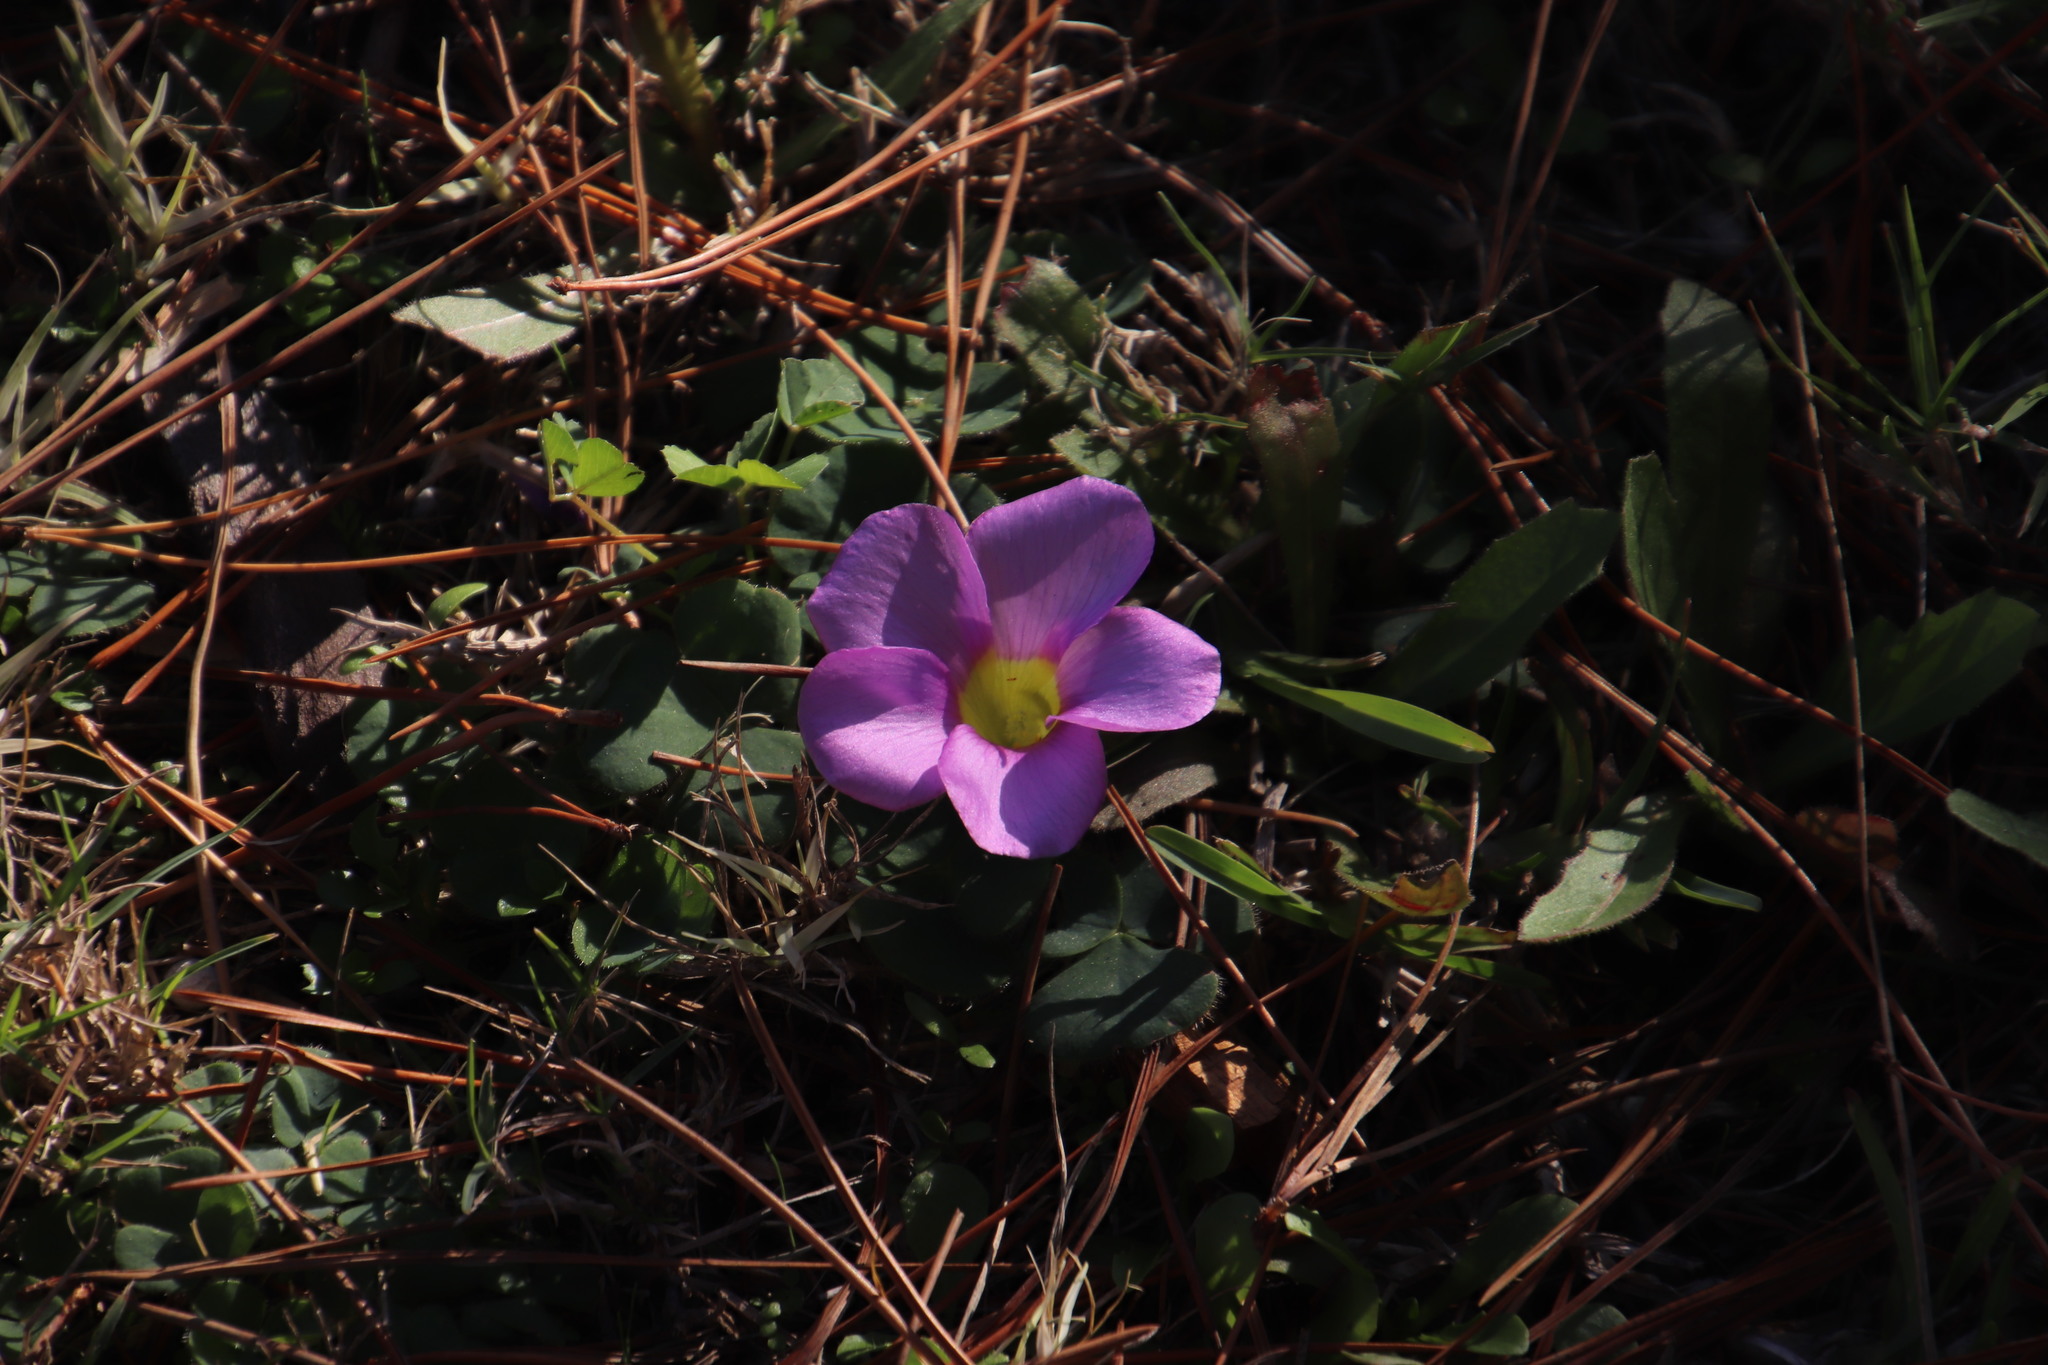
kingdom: Plantae
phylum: Tracheophyta
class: Magnoliopsida
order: Oxalidales
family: Oxalidaceae
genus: Oxalis
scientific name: Oxalis purpurea
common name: Purple woodsorrel
